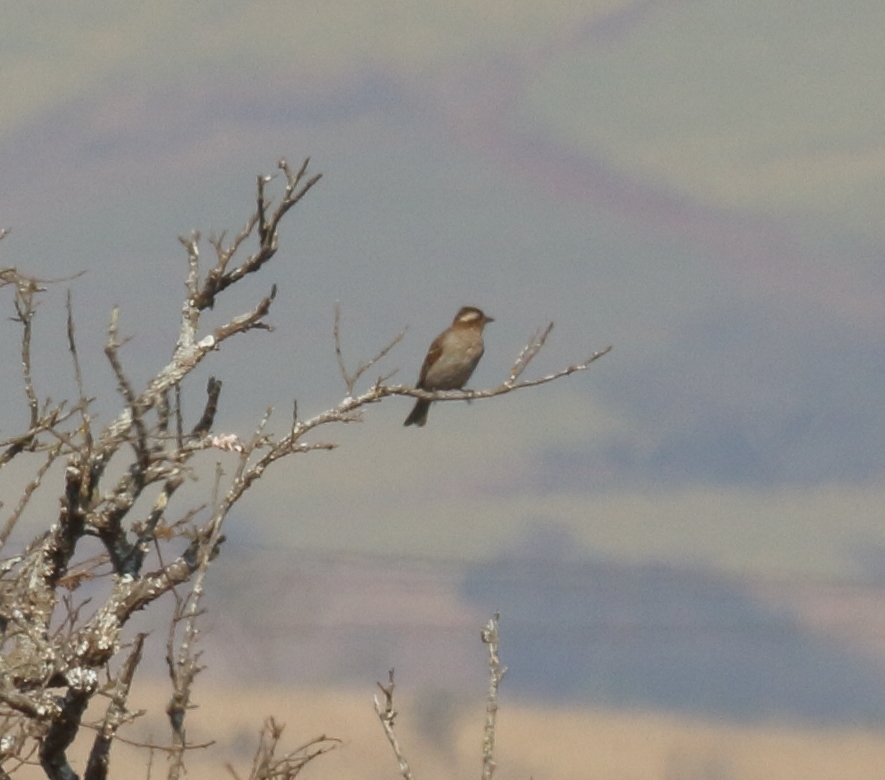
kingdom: Animalia
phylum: Chordata
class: Aves
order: Passeriformes
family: Passeridae
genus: Gymnoris
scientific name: Gymnoris superciliaris
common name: Yellow-throated petronia
